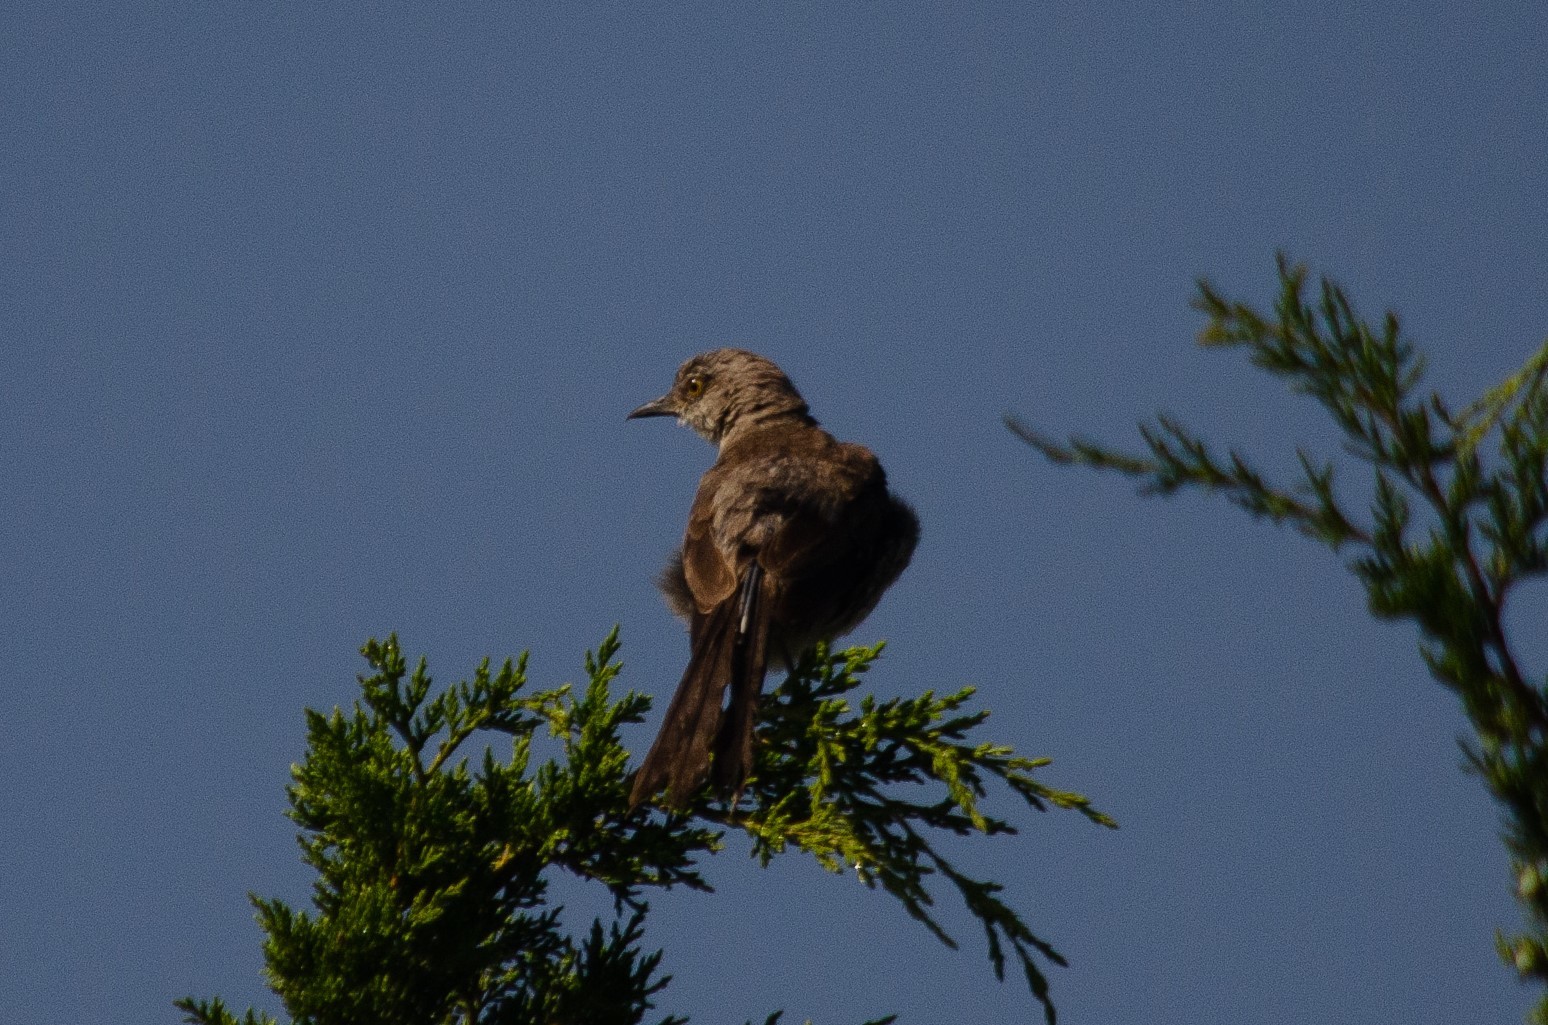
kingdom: Animalia
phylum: Chordata
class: Aves
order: Passeriformes
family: Mimidae
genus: Mimus
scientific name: Mimus polyglottos
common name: Northern mockingbird
